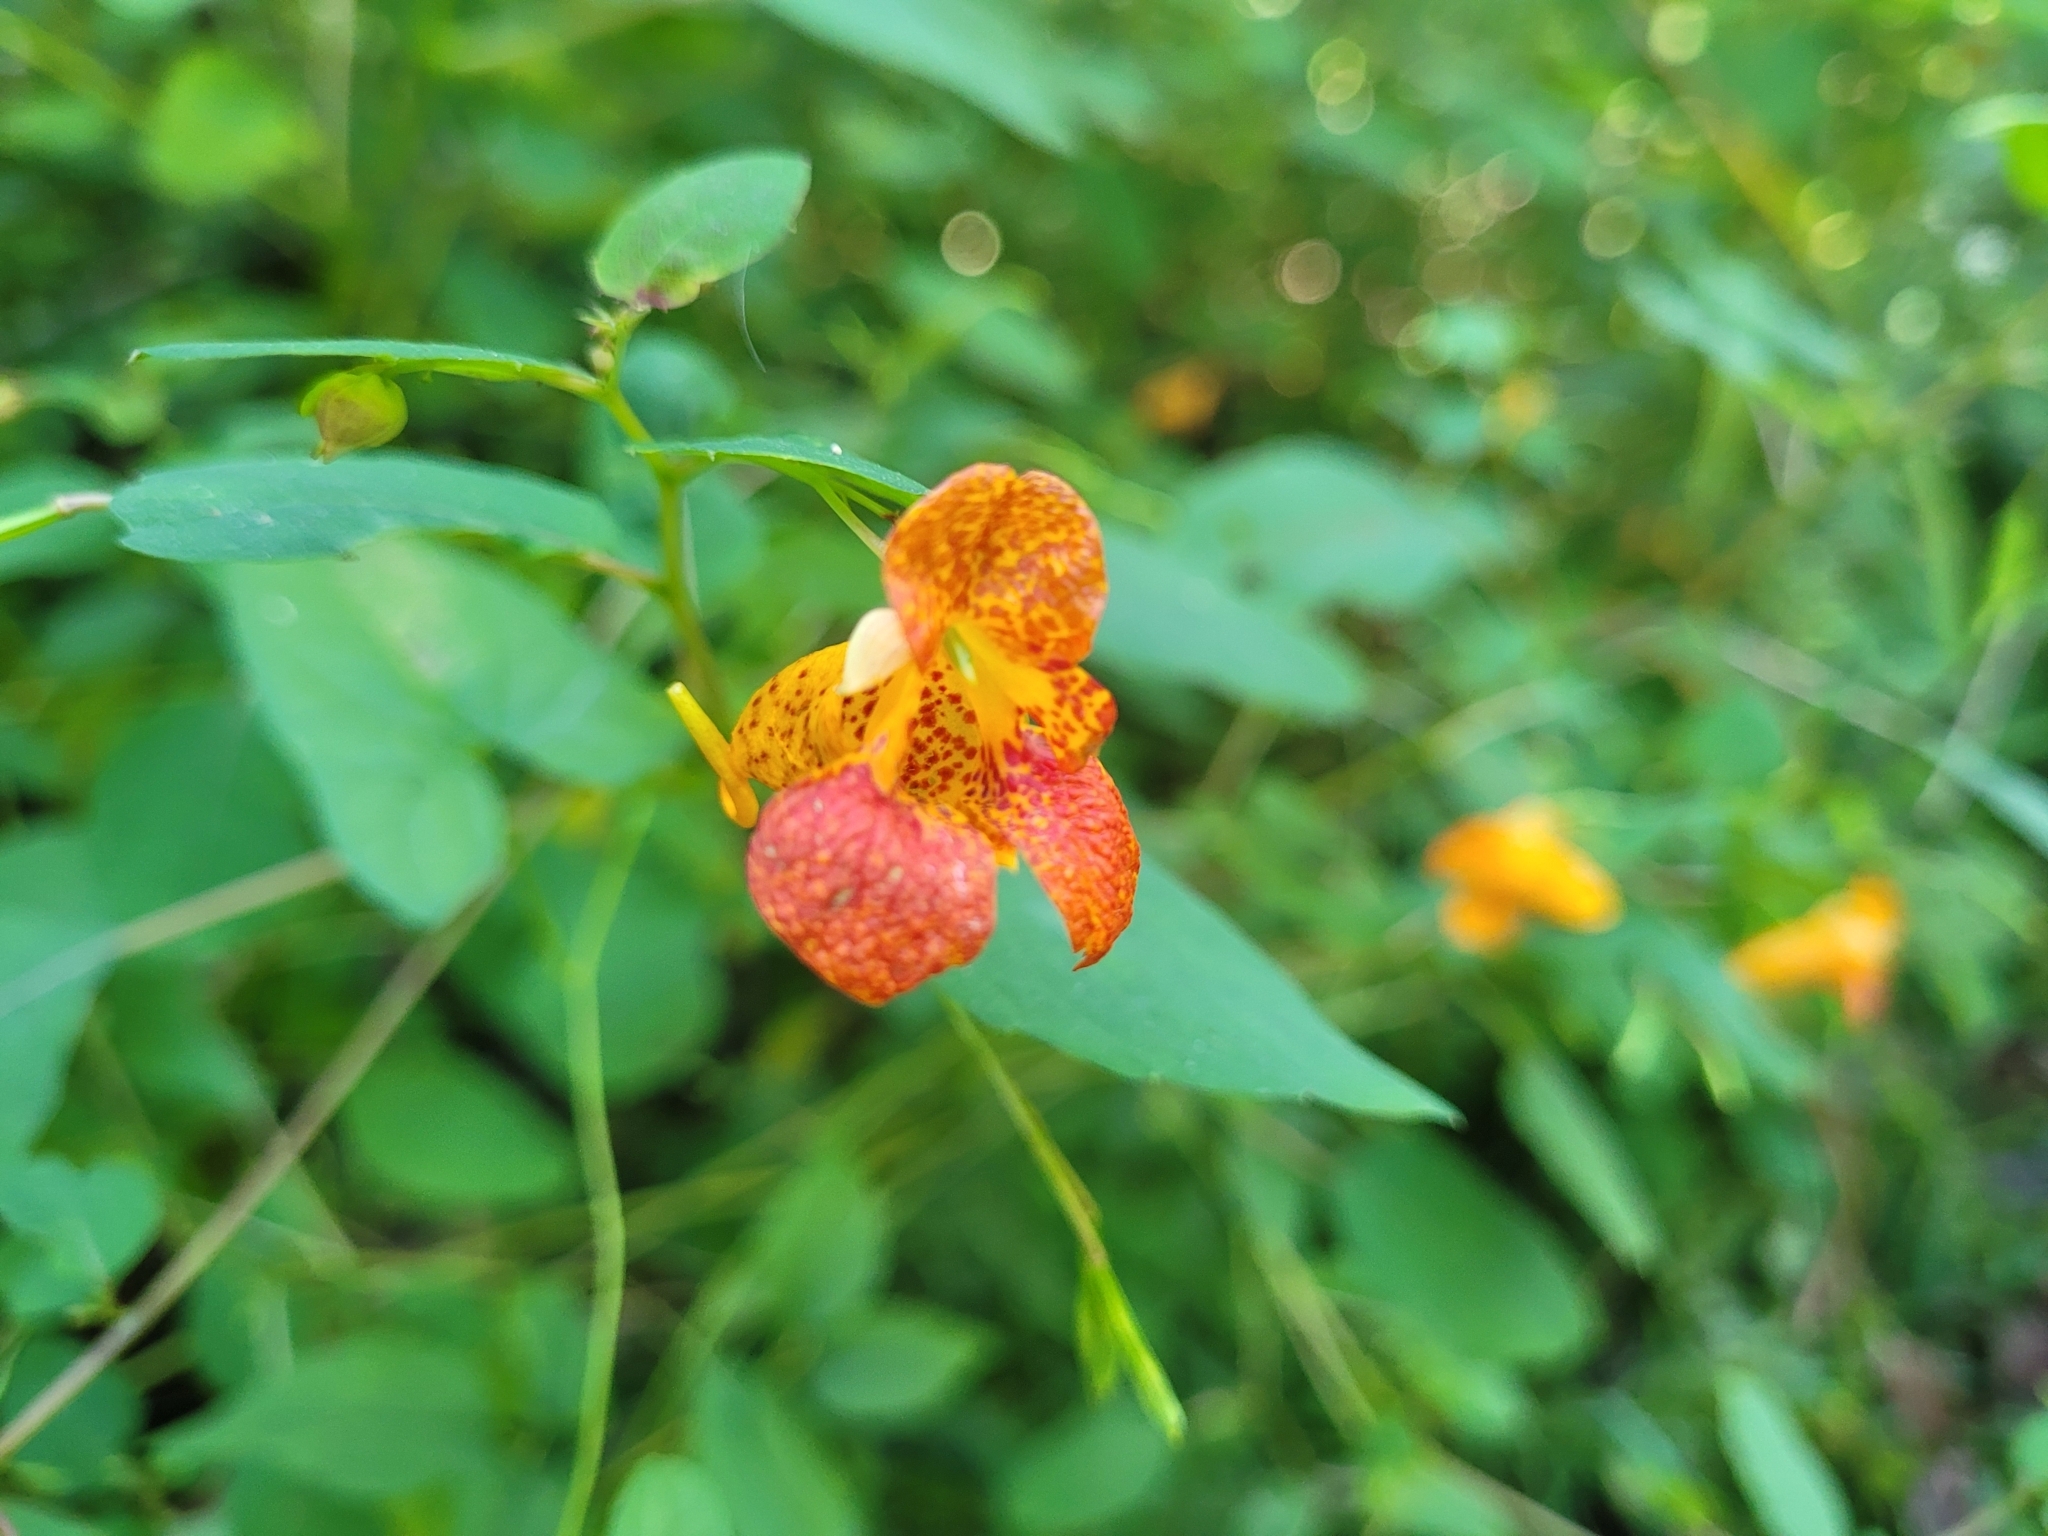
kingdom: Plantae
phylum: Tracheophyta
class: Magnoliopsida
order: Ericales
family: Balsaminaceae
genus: Impatiens
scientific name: Impatiens capensis
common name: Orange balsam
